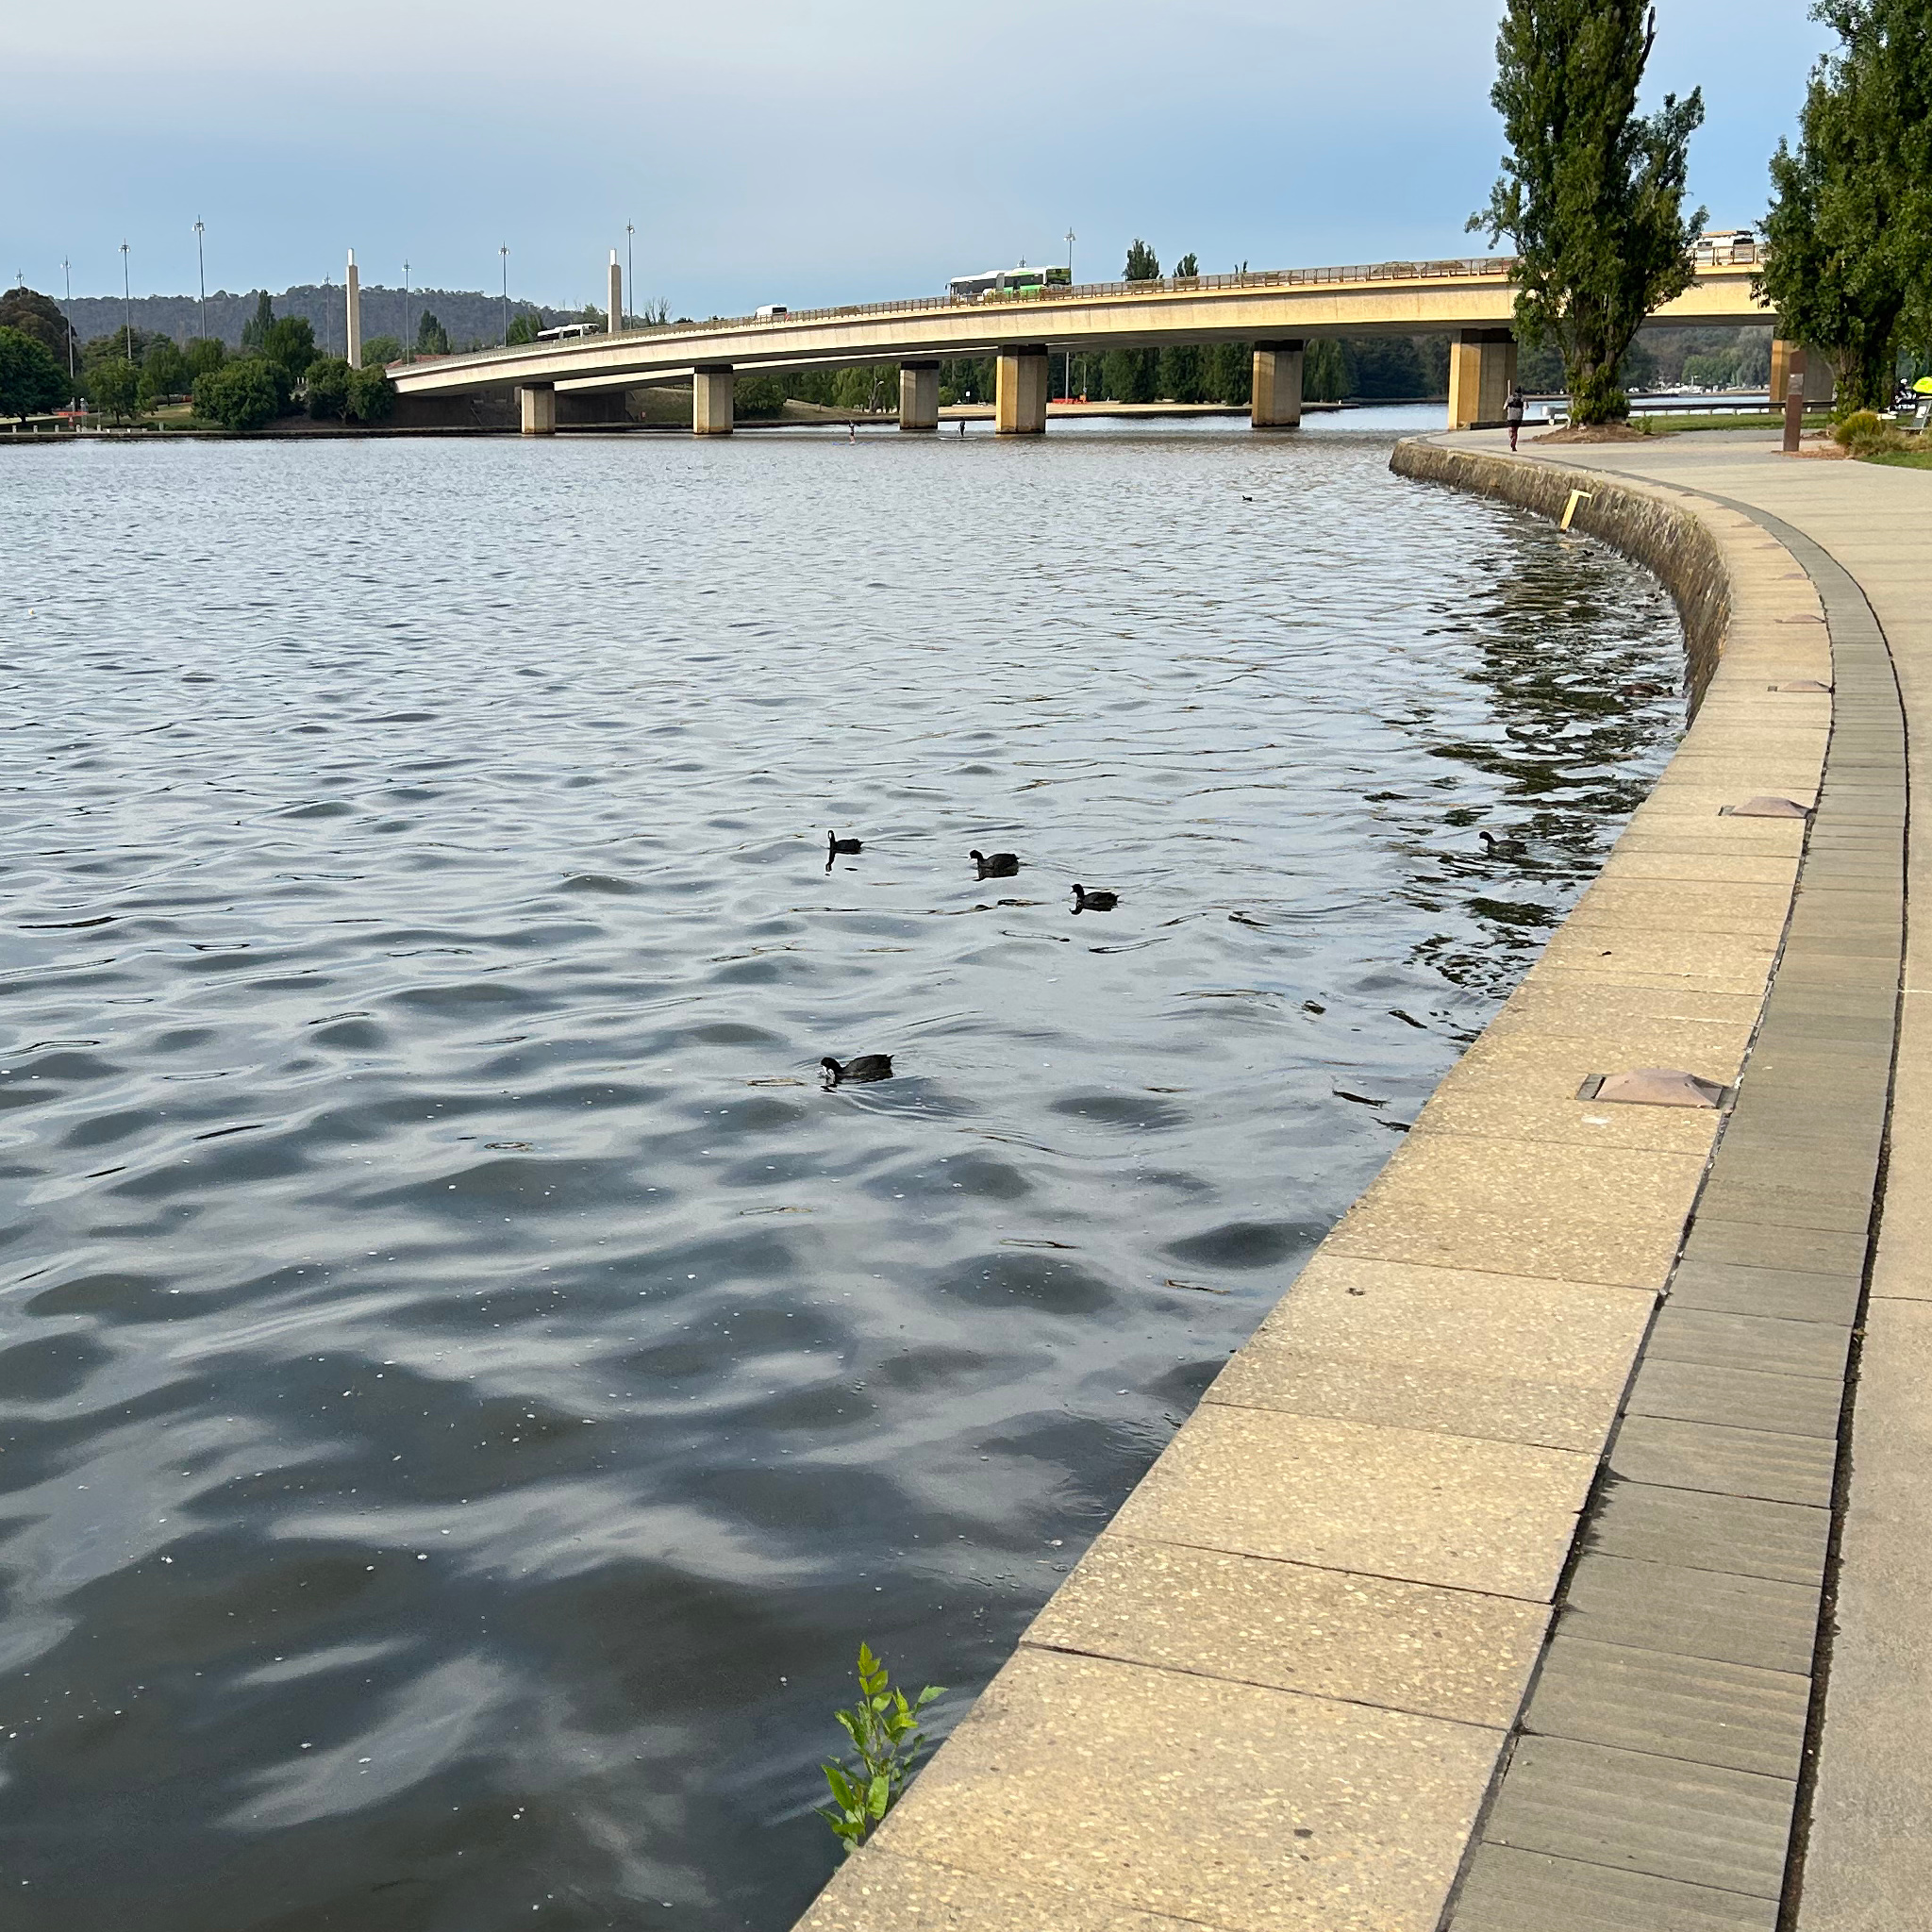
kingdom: Animalia
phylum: Chordata
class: Aves
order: Gruiformes
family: Rallidae
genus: Fulica
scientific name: Fulica atra
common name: Eurasian coot
